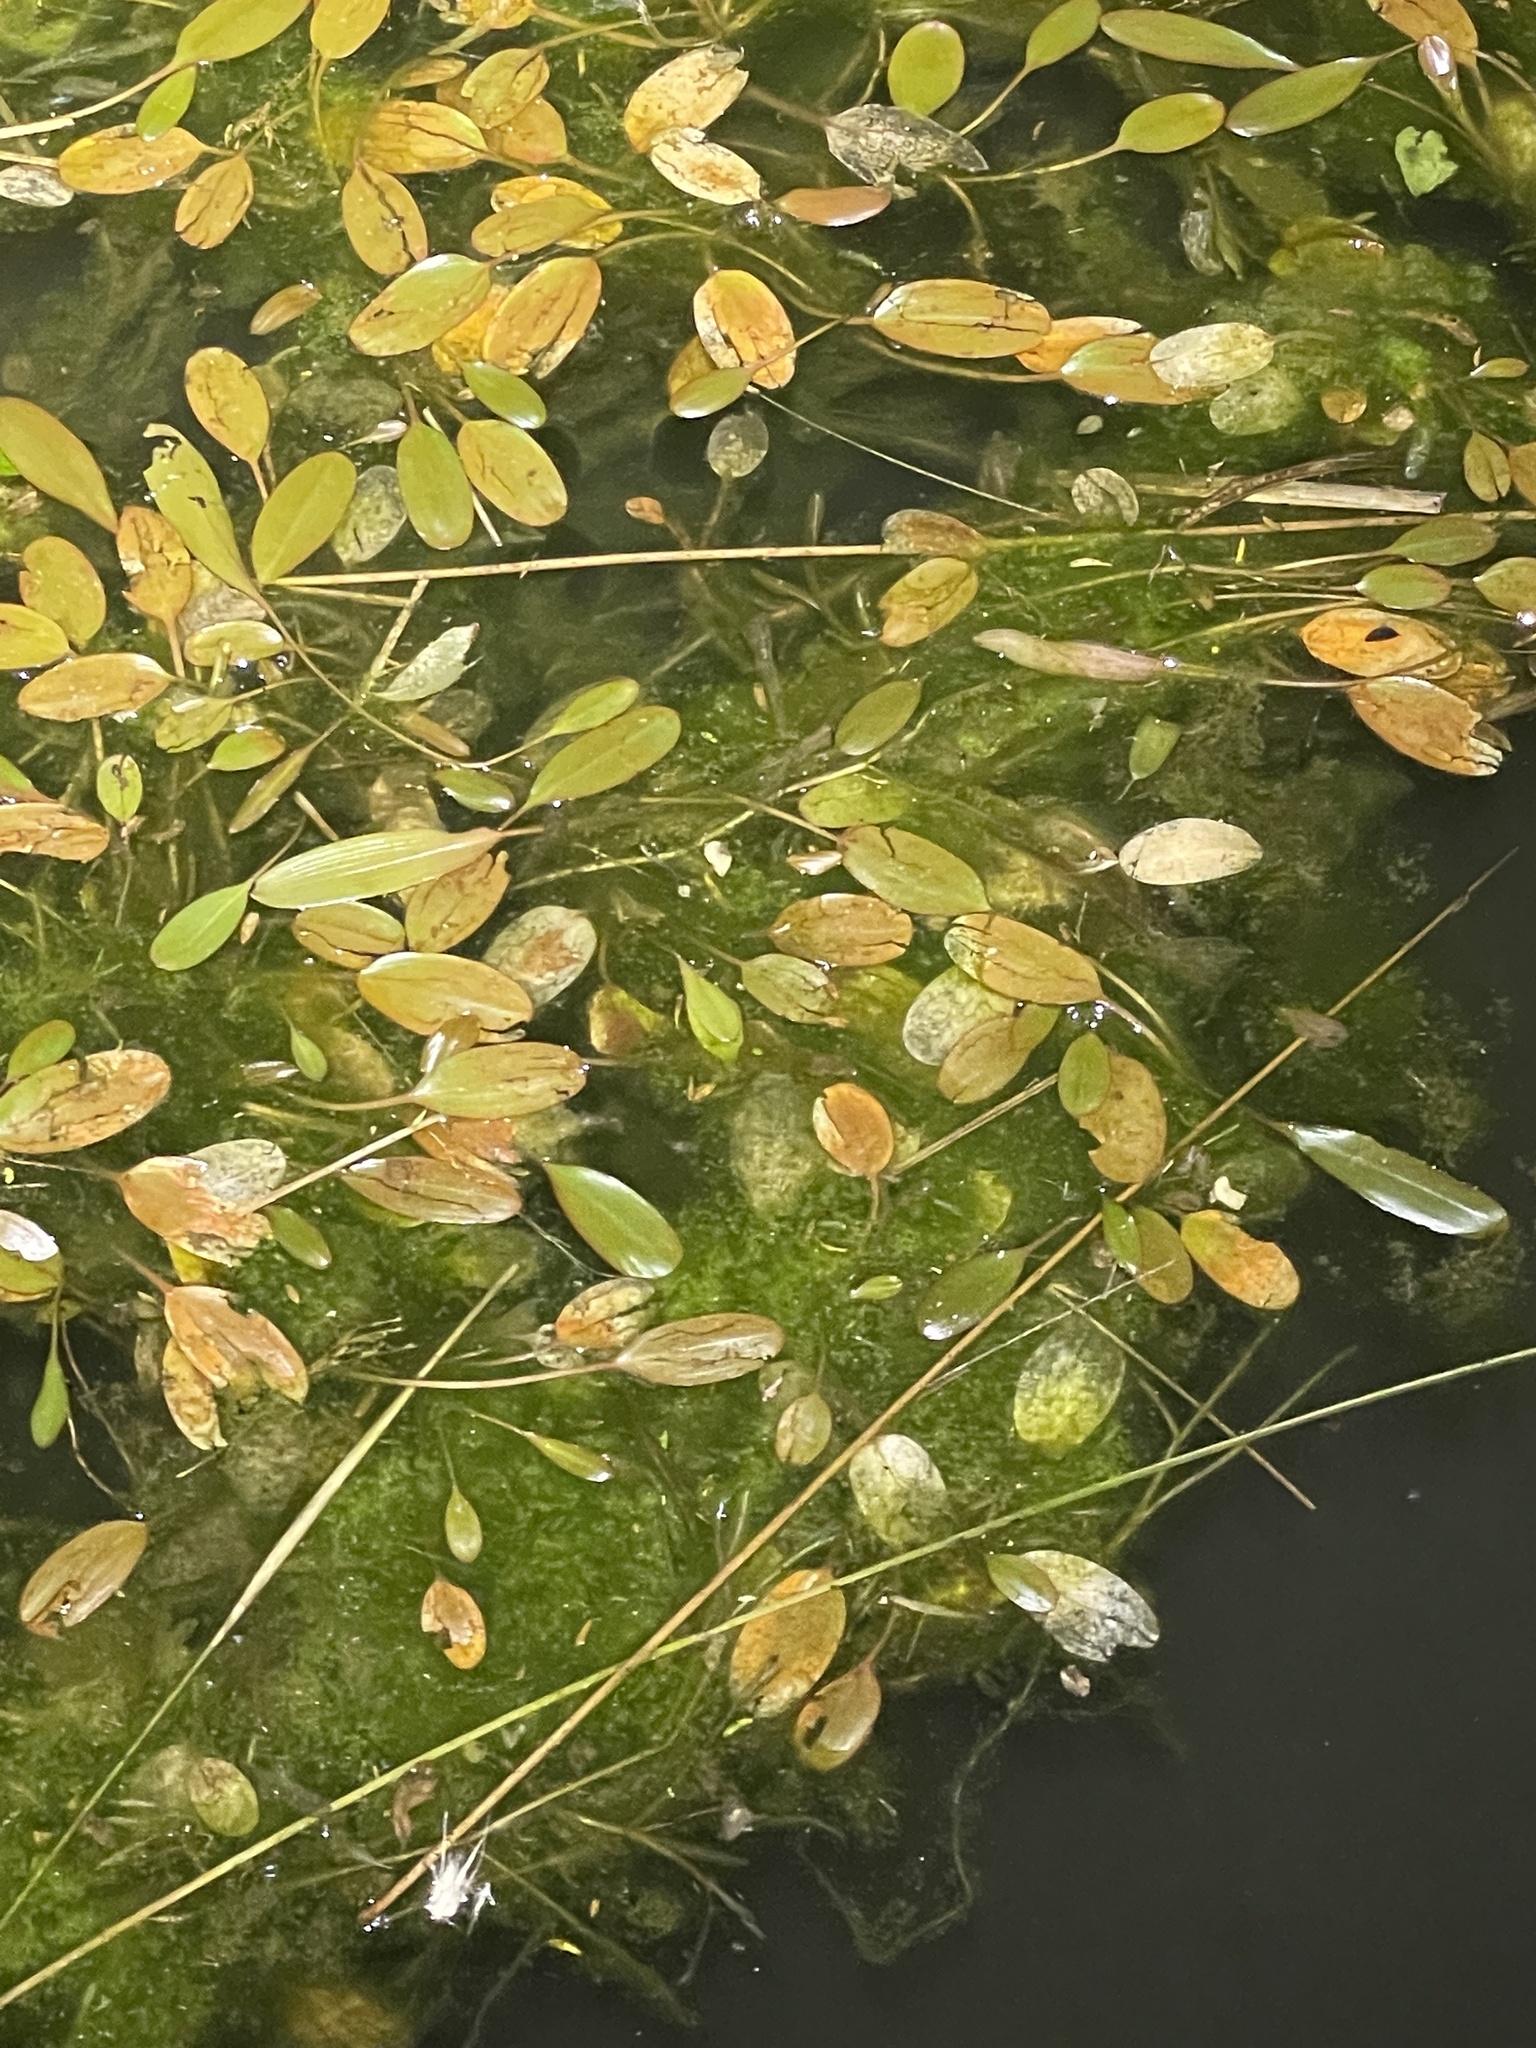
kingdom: Plantae
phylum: Tracheophyta
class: Liliopsida
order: Alismatales
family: Potamogetonaceae
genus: Potamogeton
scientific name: Potamogeton cheesemanii
